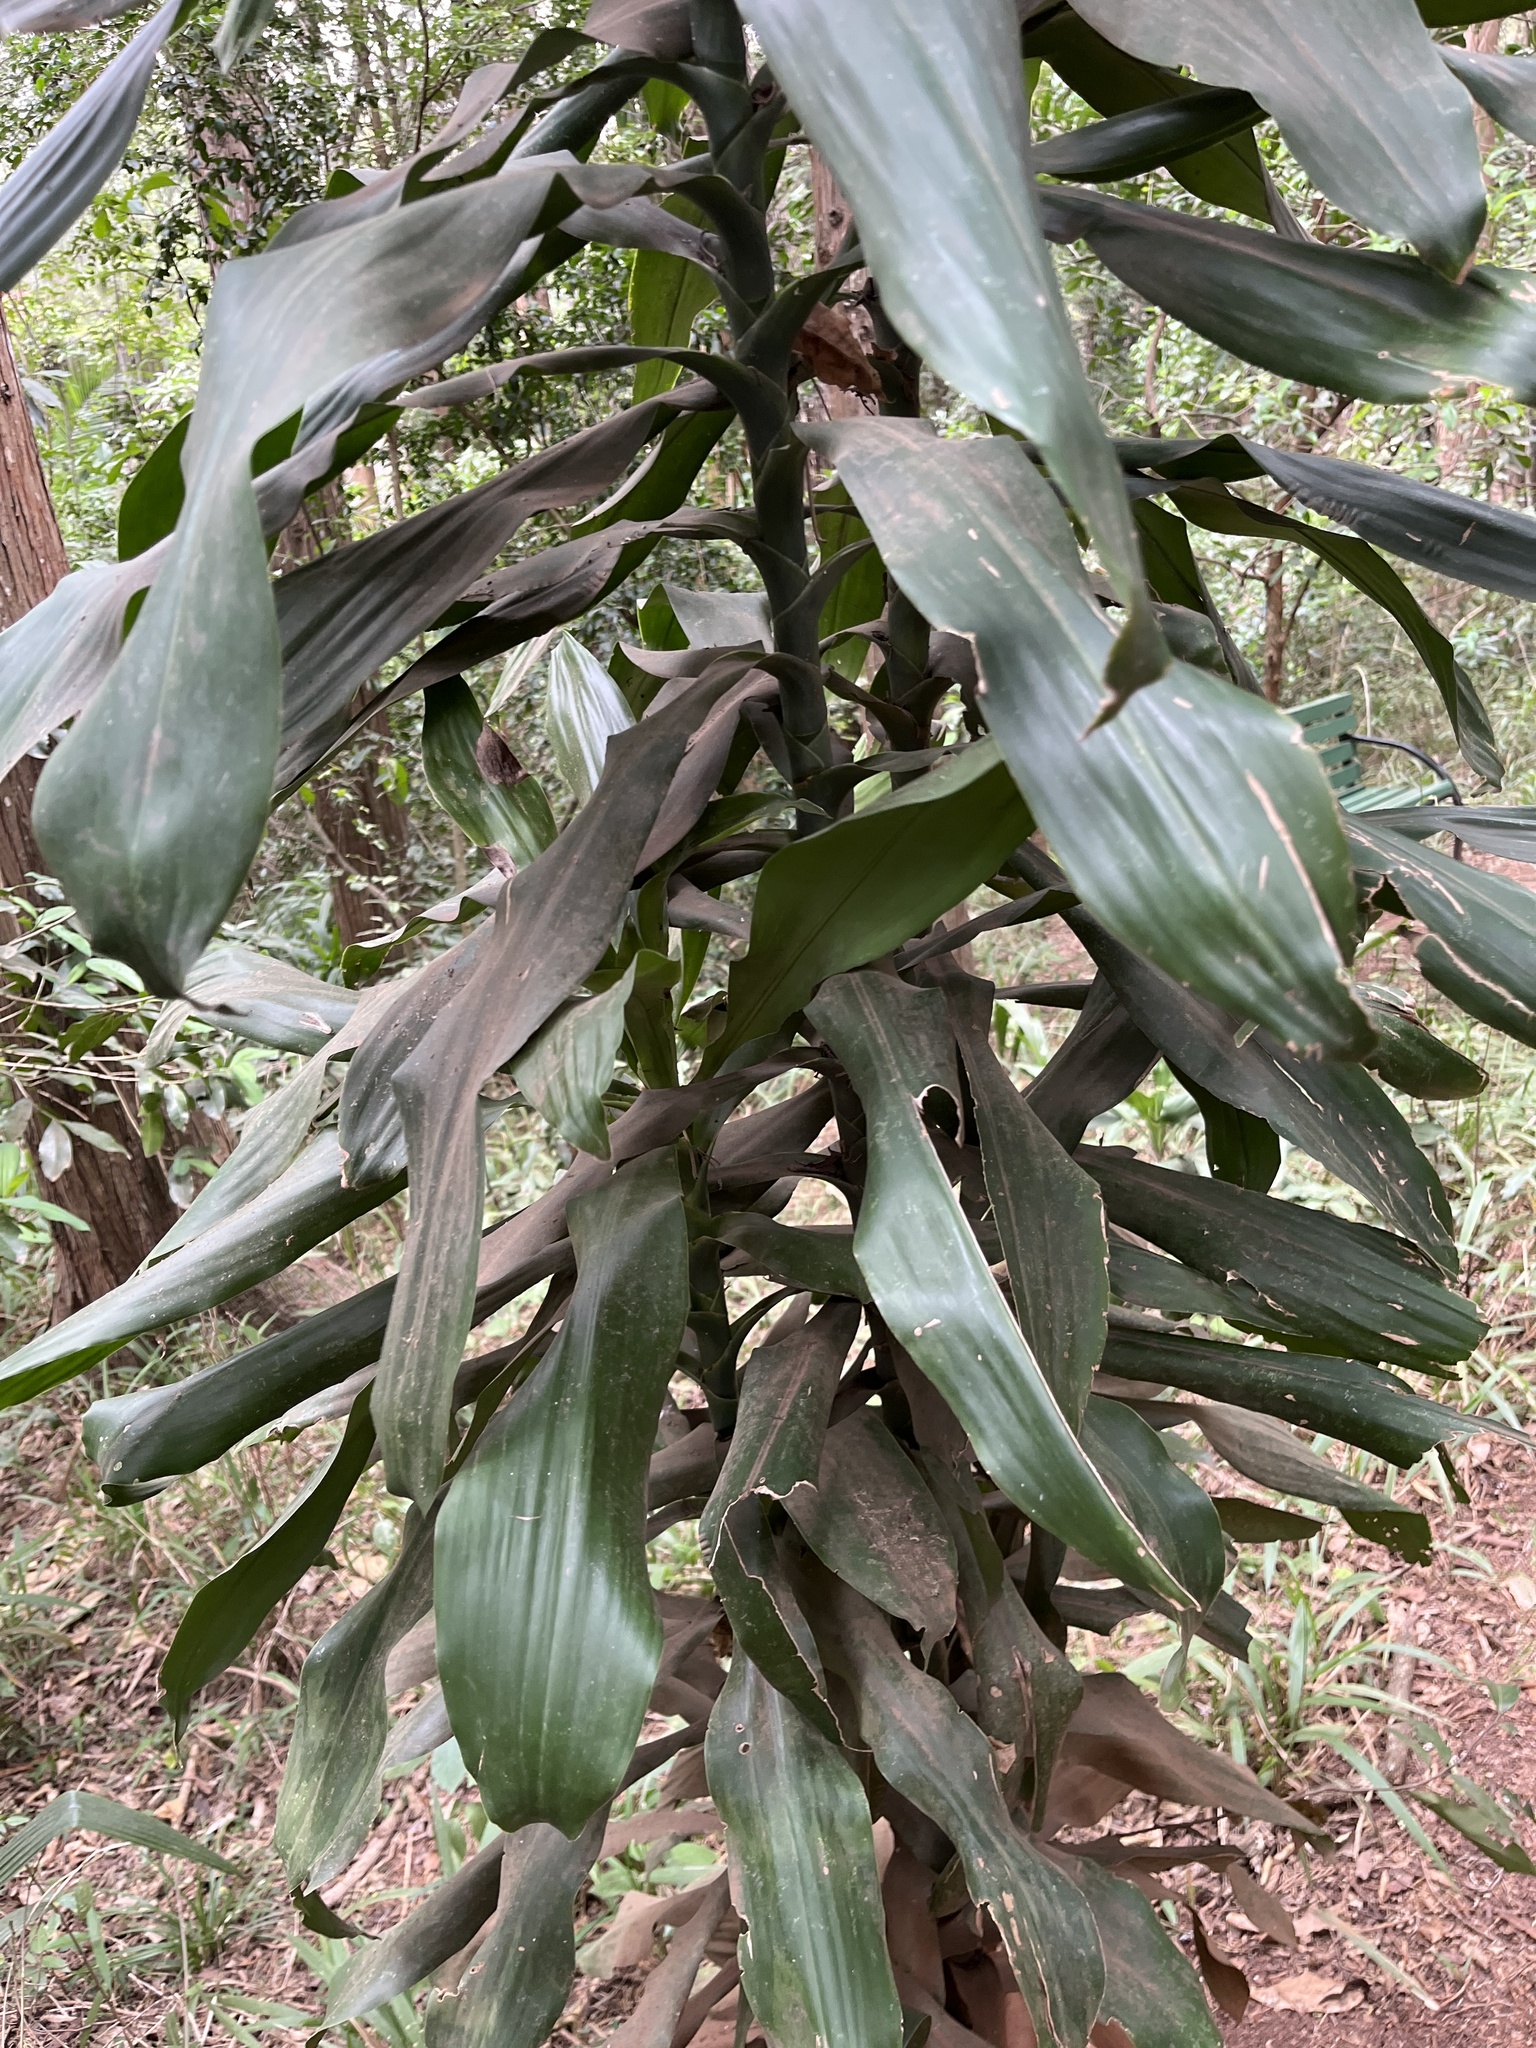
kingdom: Plantae
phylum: Tracheophyta
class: Liliopsida
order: Asparagales
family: Asparagaceae
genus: Dracaena
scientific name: Dracaena fragrans
